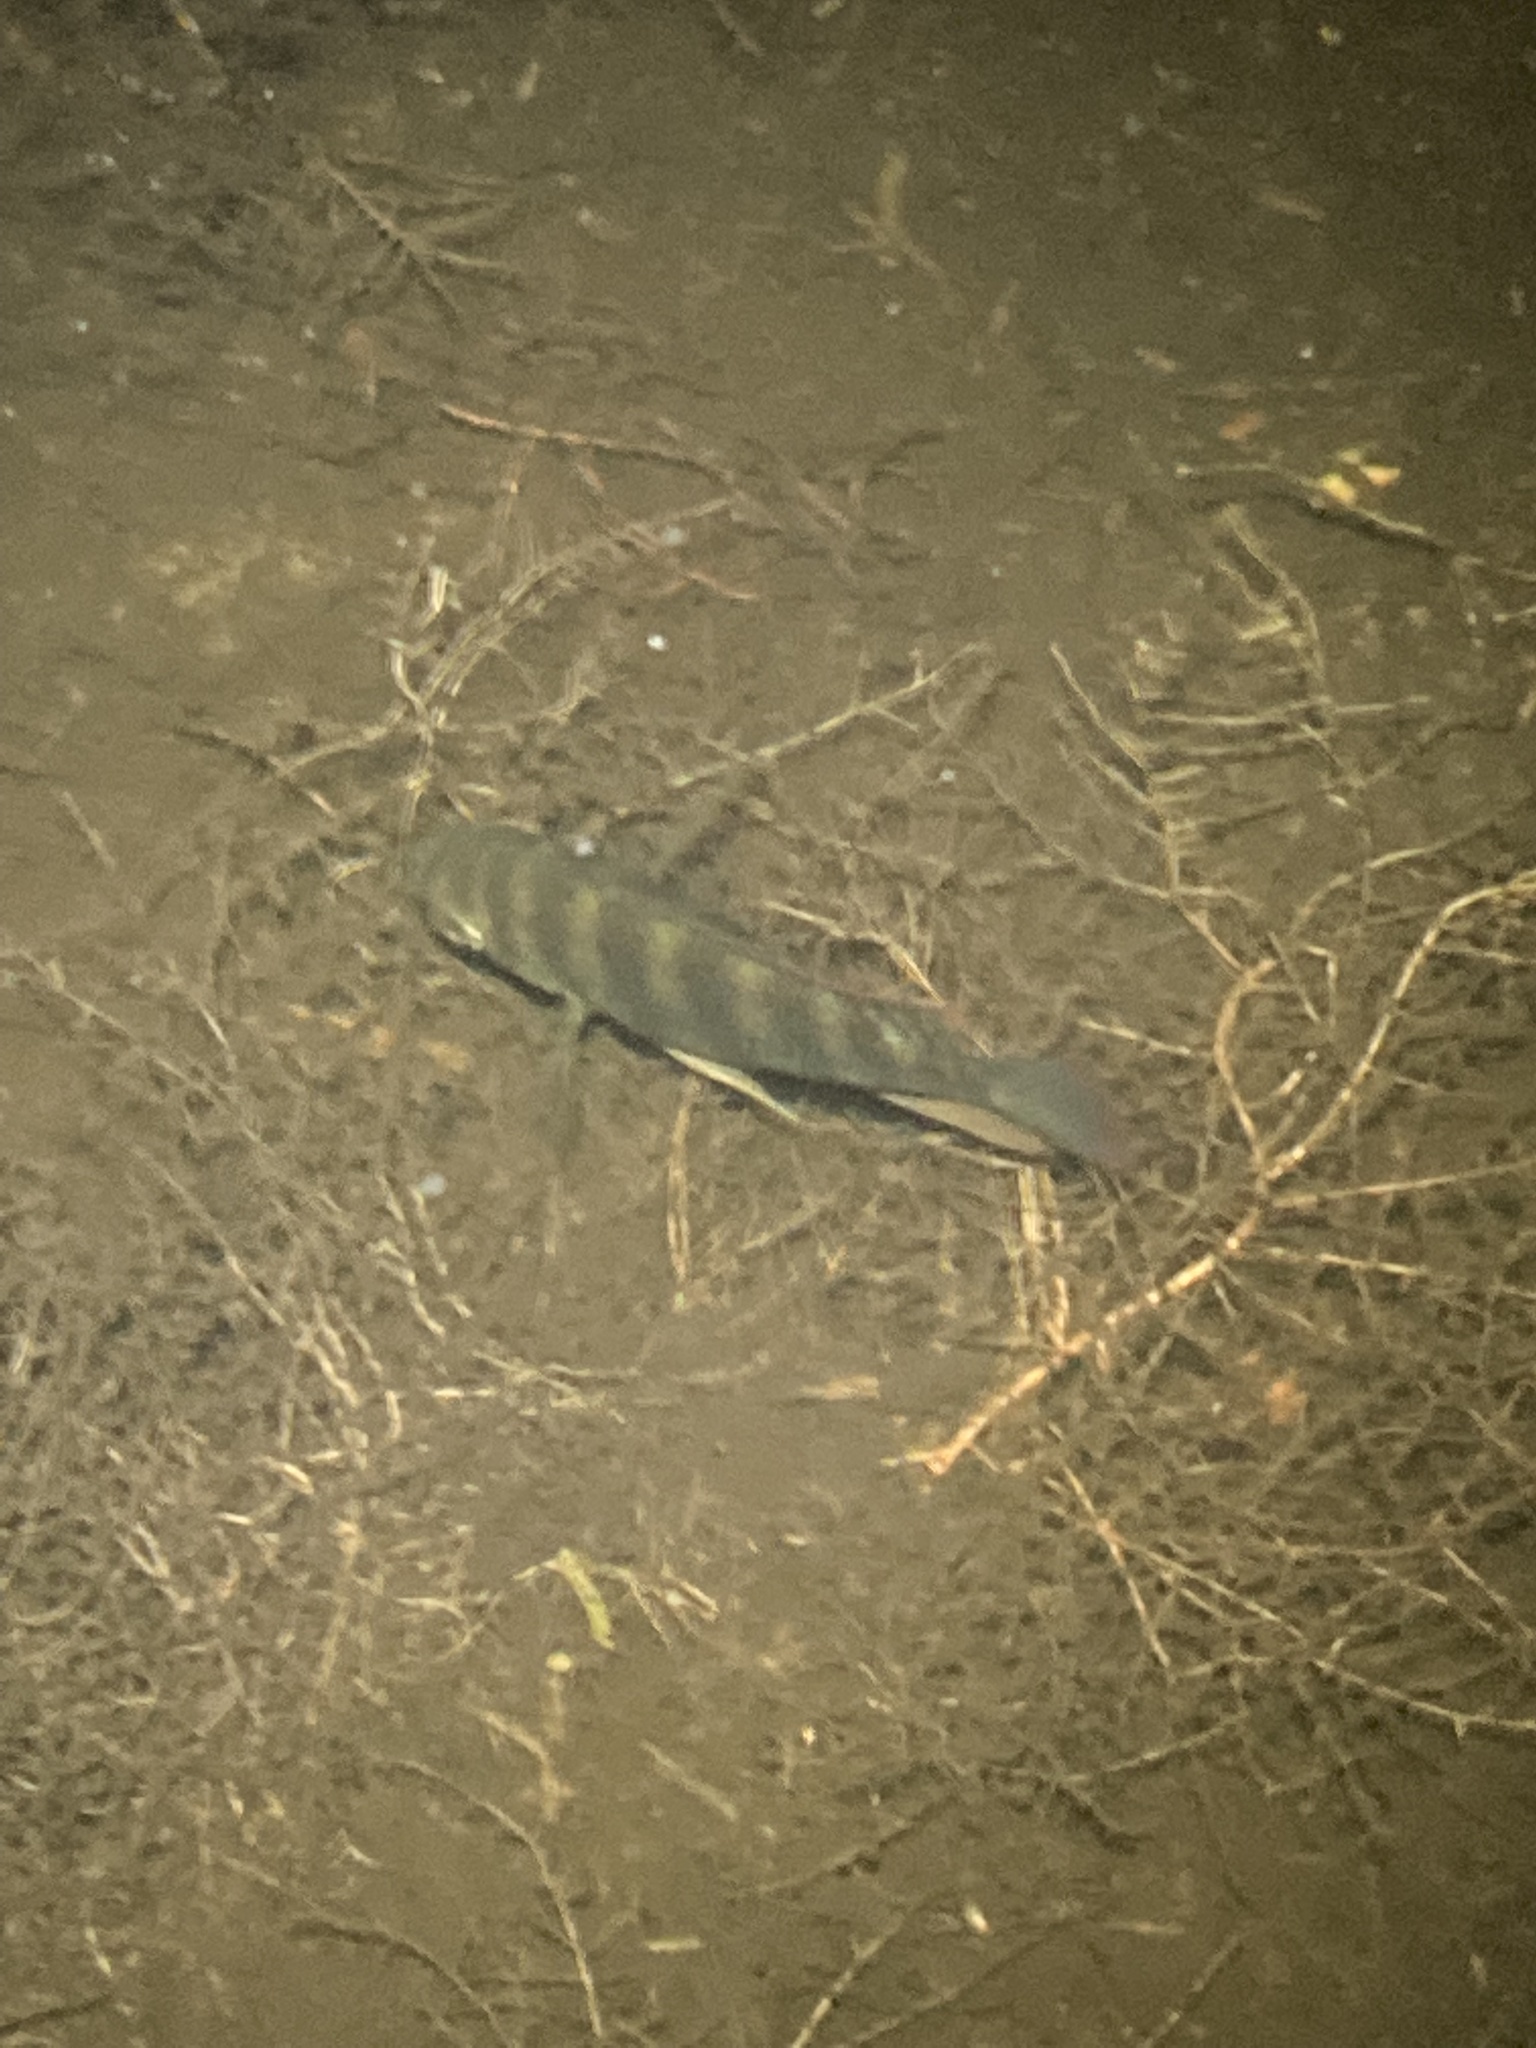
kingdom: Animalia
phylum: Chordata
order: Perciformes
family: Cichlidae
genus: Pelmatolapia
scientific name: Pelmatolapia mariae
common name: Spotted tilapia
